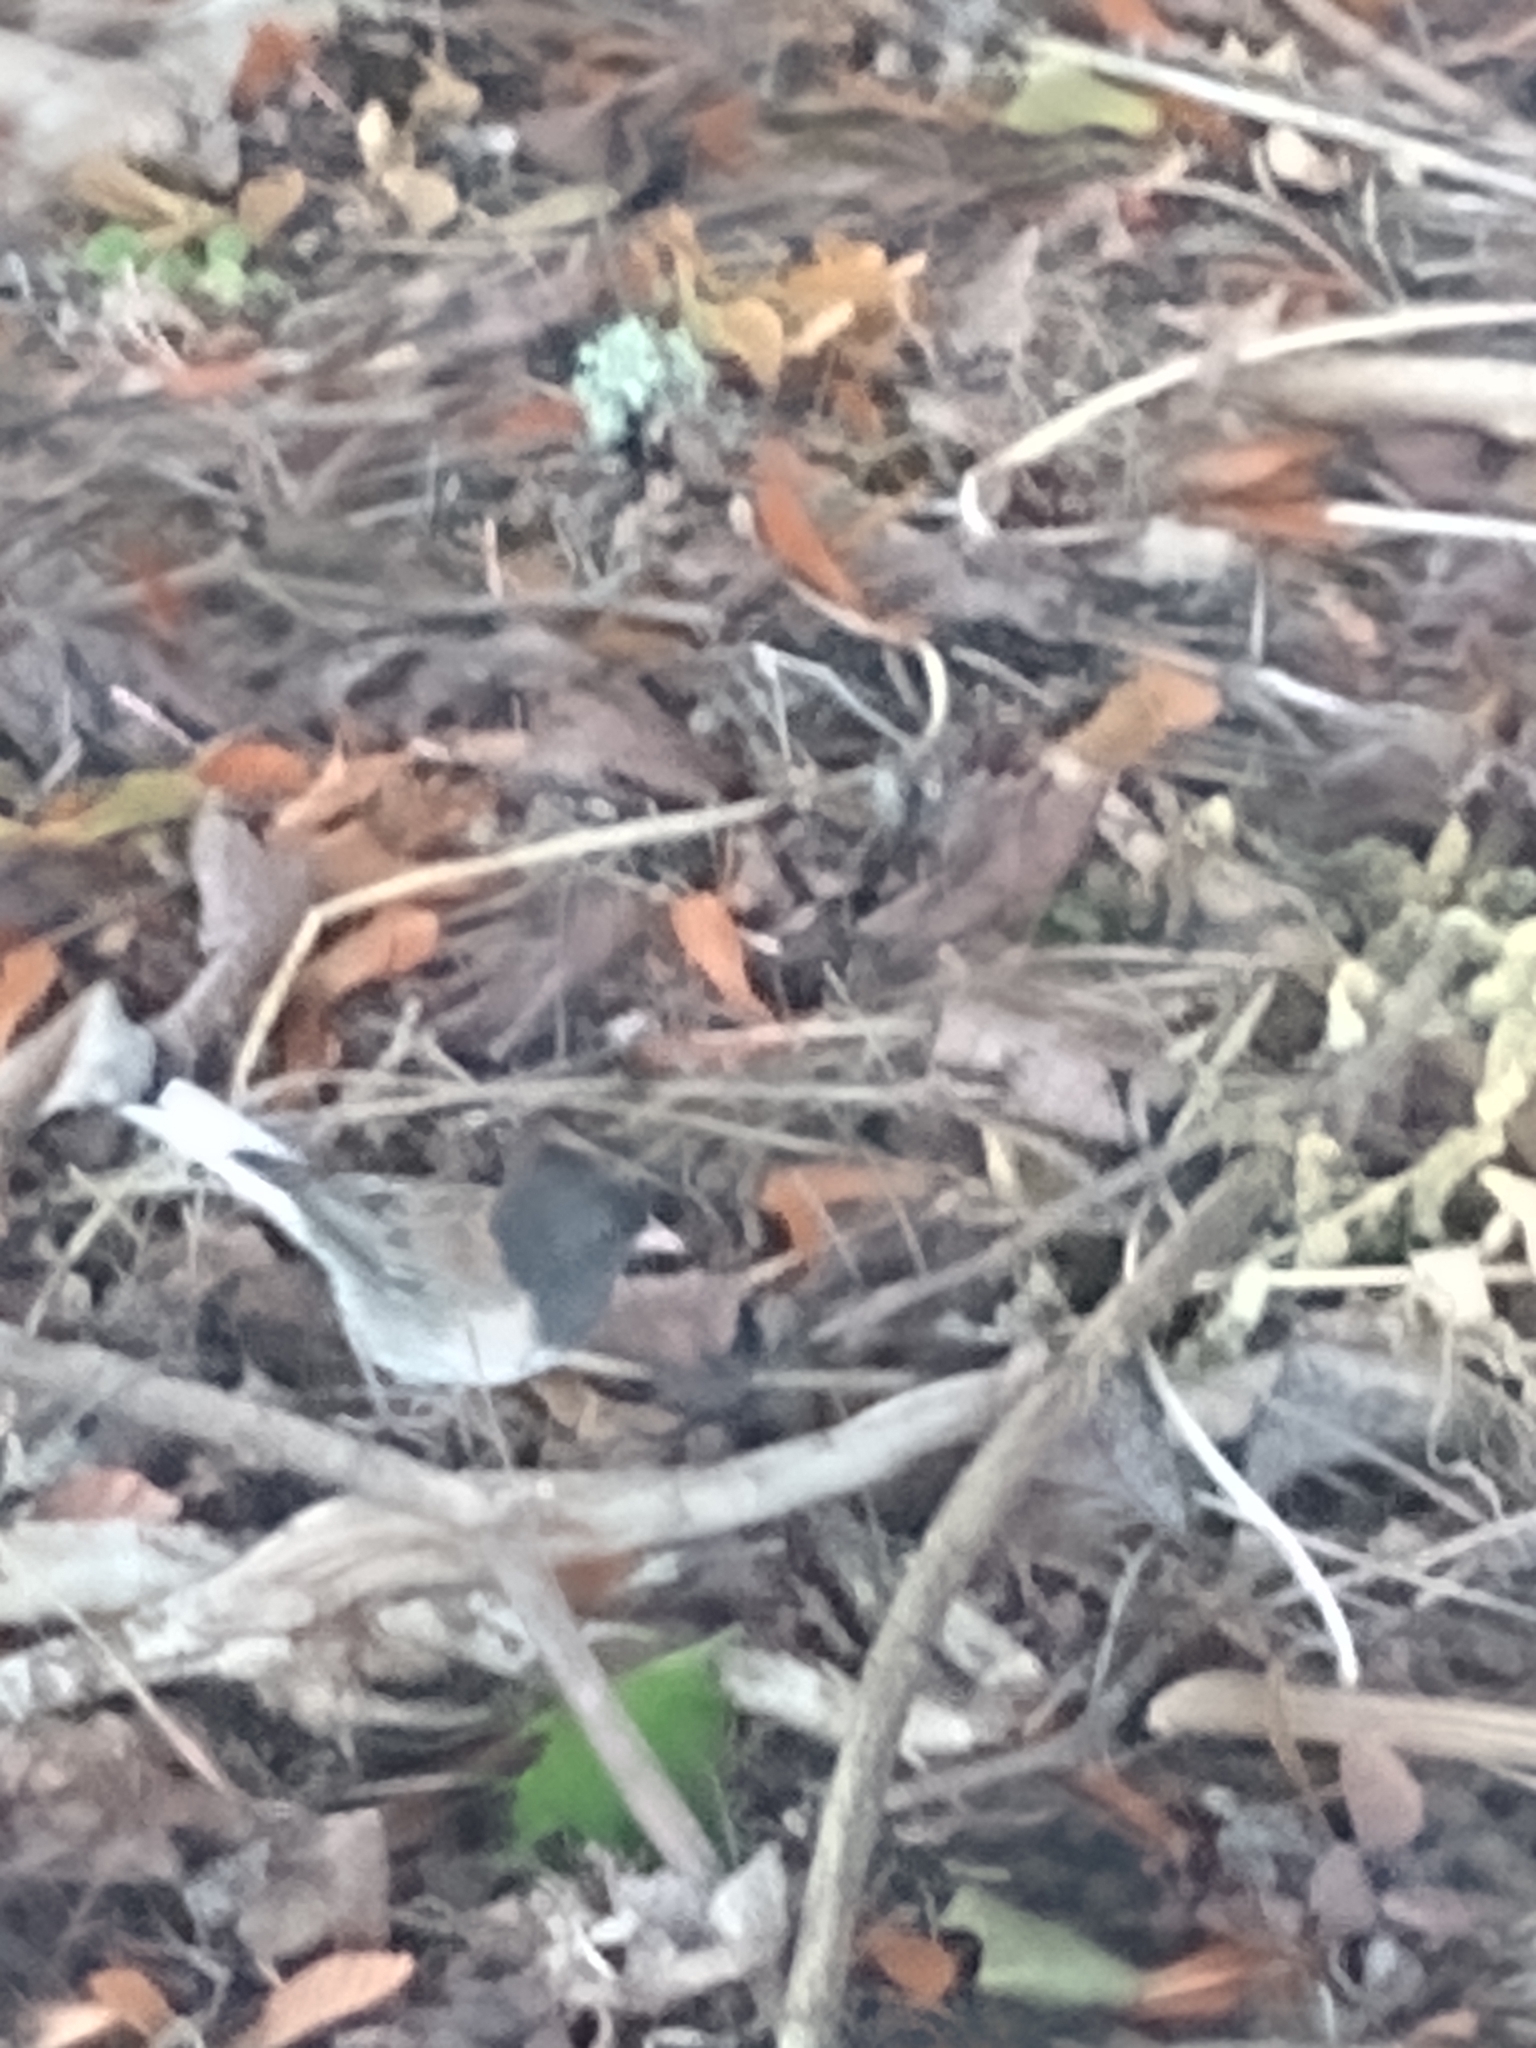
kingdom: Animalia
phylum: Chordata
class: Aves
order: Passeriformes
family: Passerellidae
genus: Junco
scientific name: Junco hyemalis
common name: Dark-eyed junco
